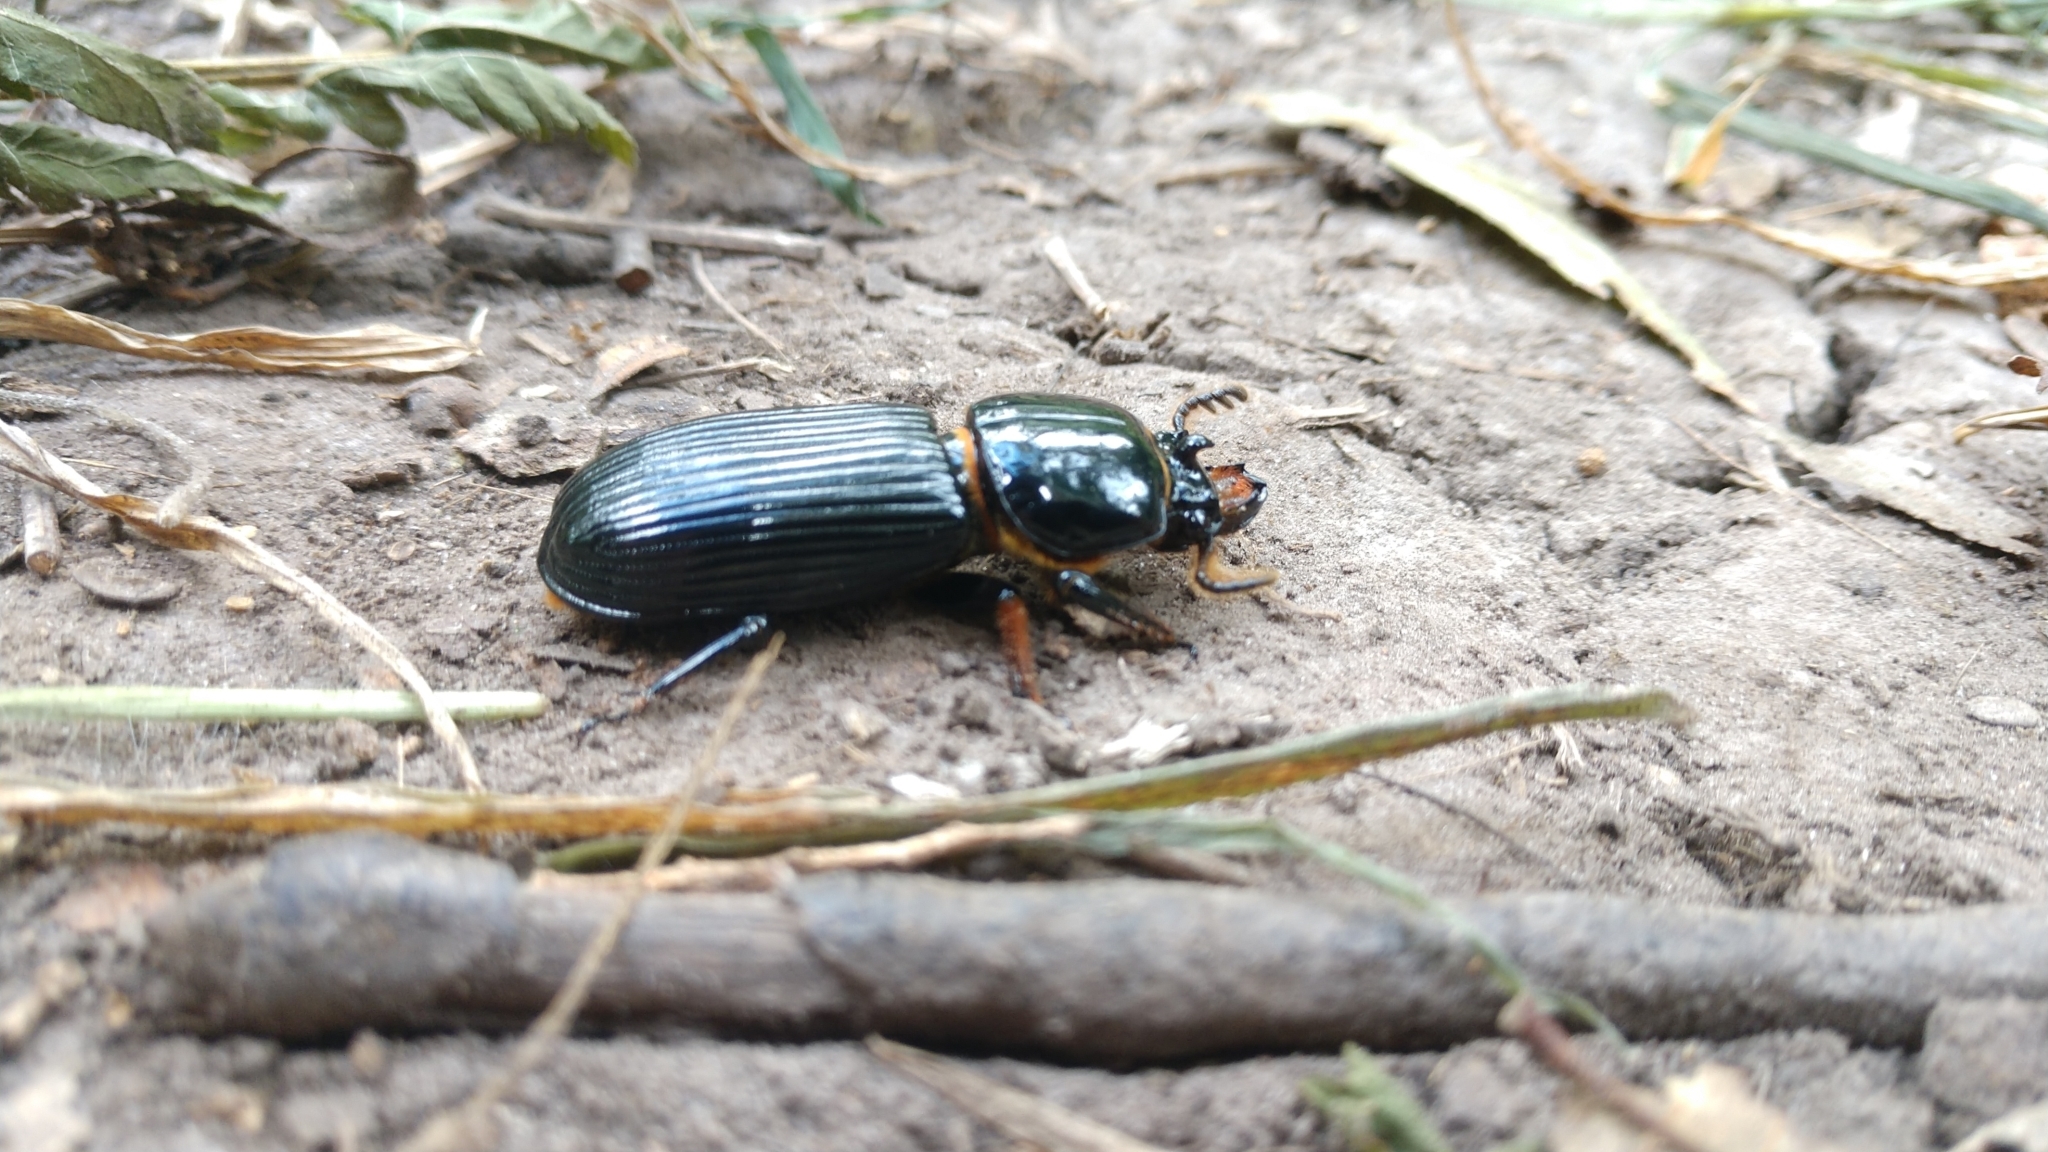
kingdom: Animalia
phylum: Arthropoda
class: Insecta
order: Coleoptera
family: Passalidae
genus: Odontotaenius
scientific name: Odontotaenius disjunctus
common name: Patent leather beetle
